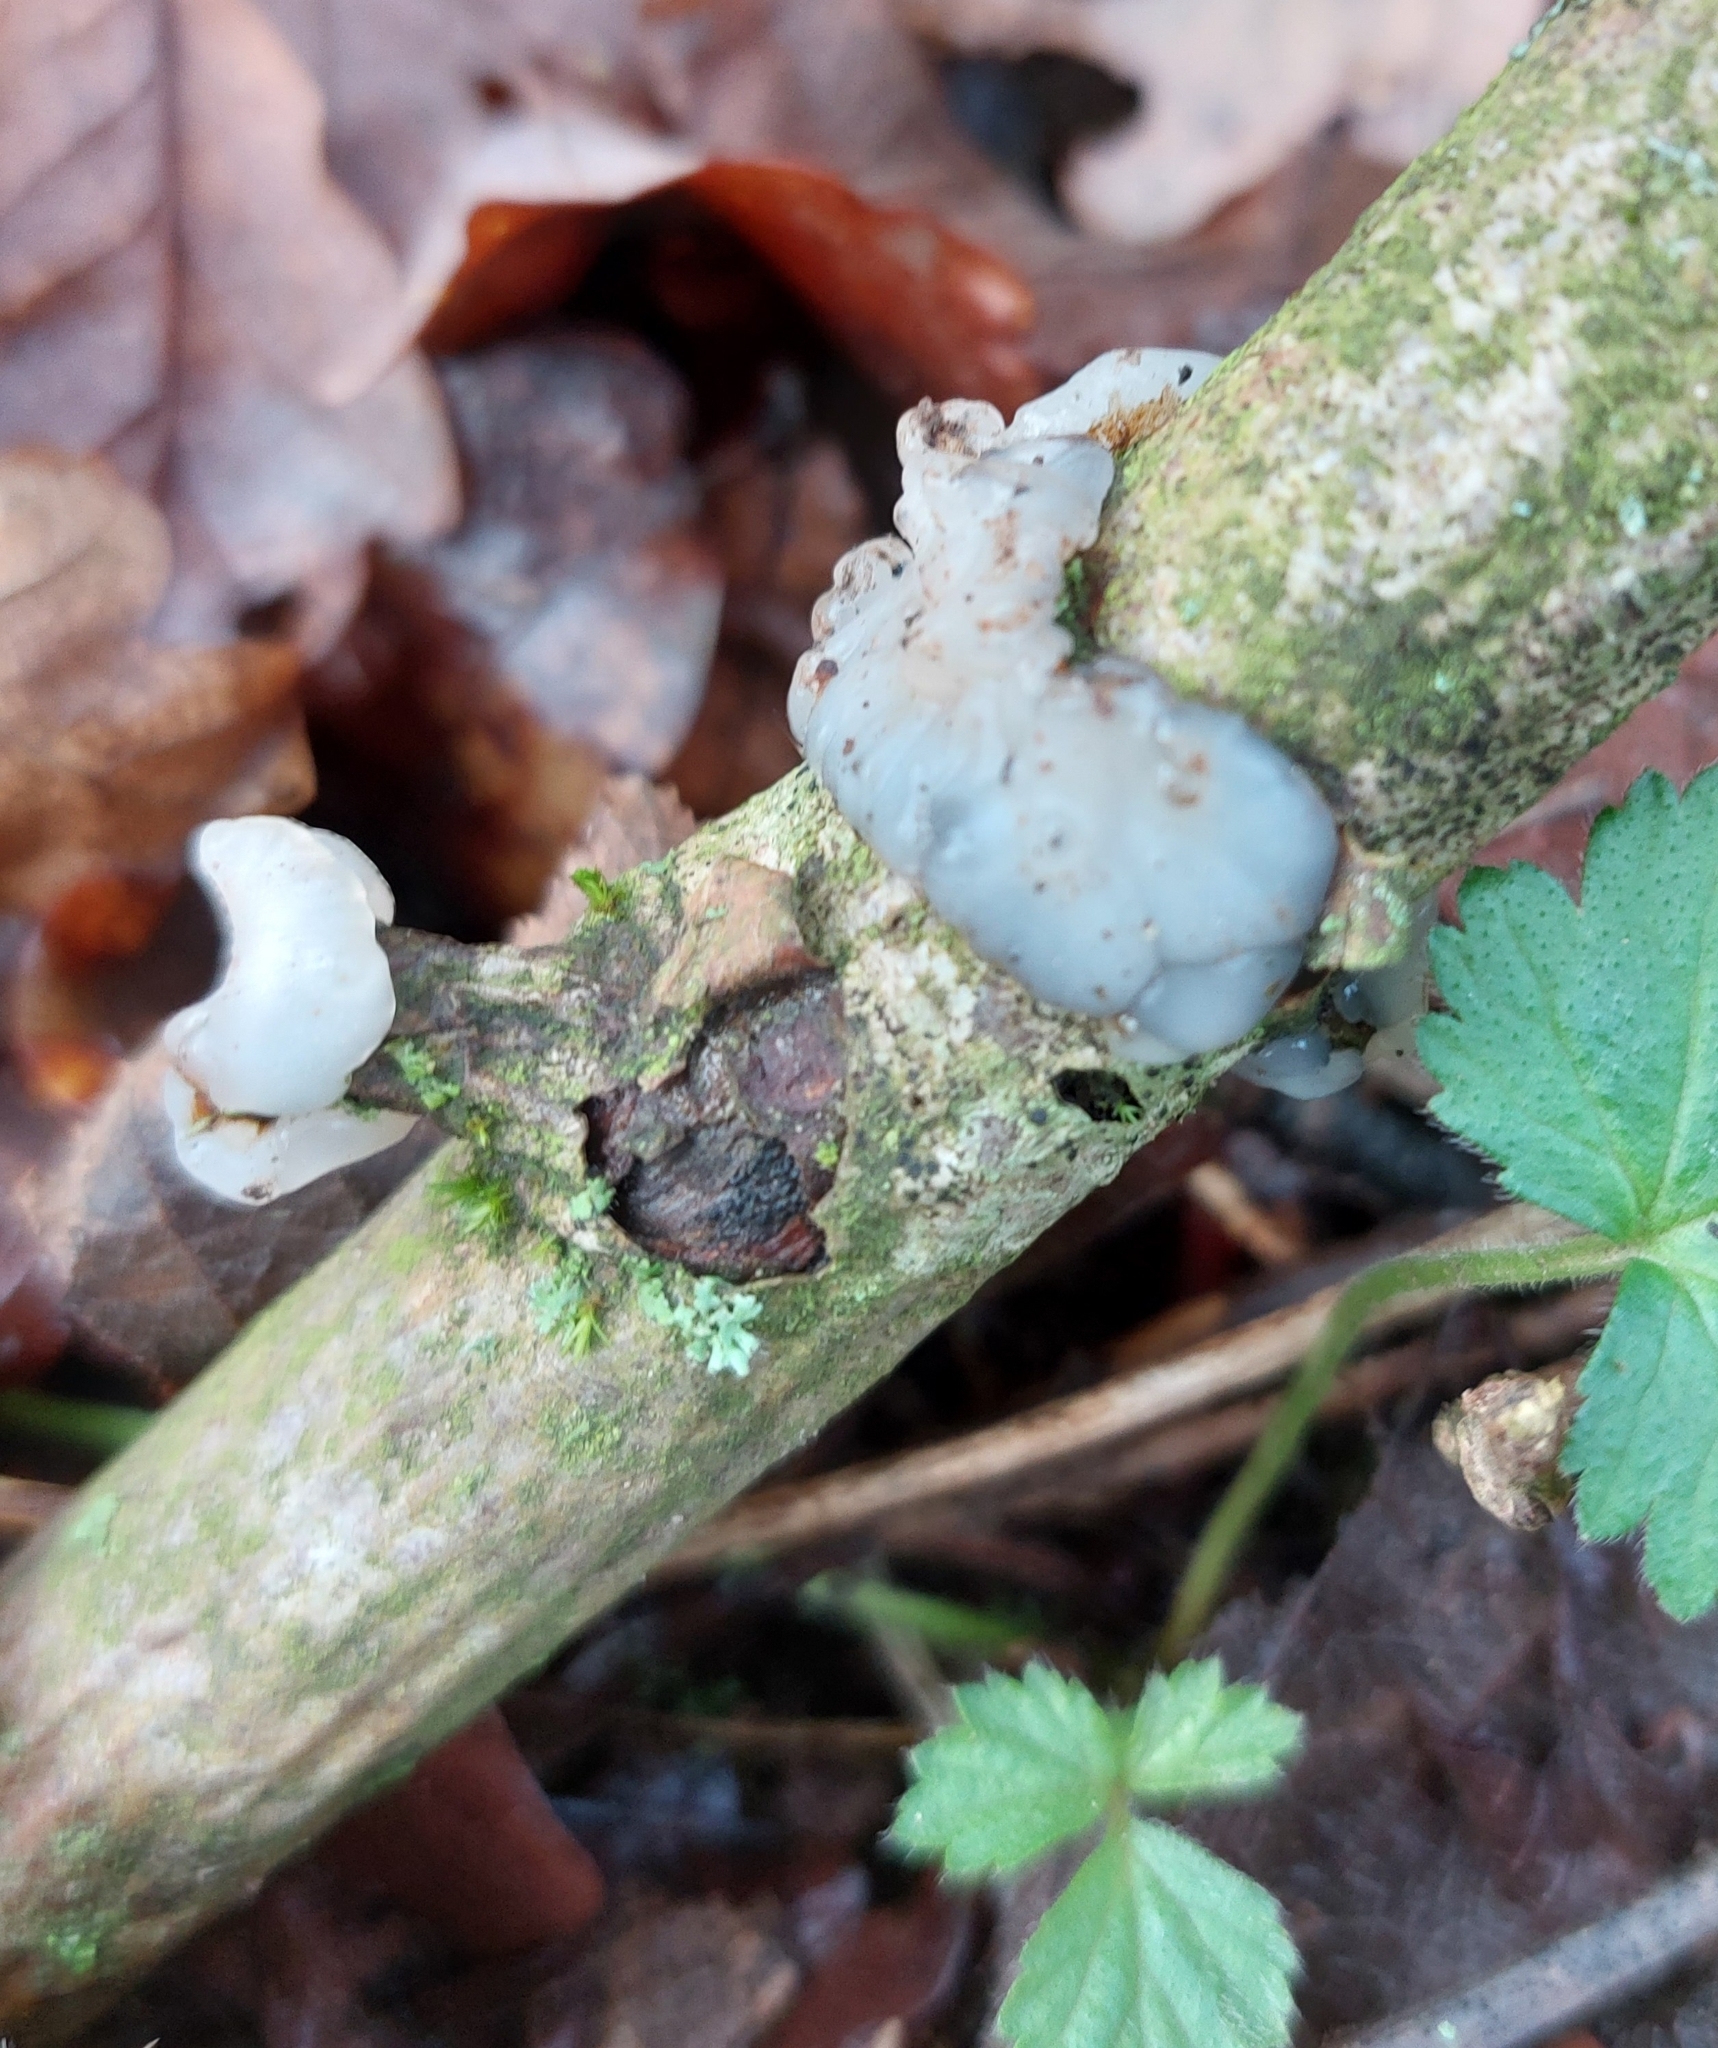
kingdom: Fungi
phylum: Basidiomycota
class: Agaricomycetes
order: Auriculariales
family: Hyaloriaceae
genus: Myxarium
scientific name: Myxarium nucleatum
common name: Crystal brain fungus
